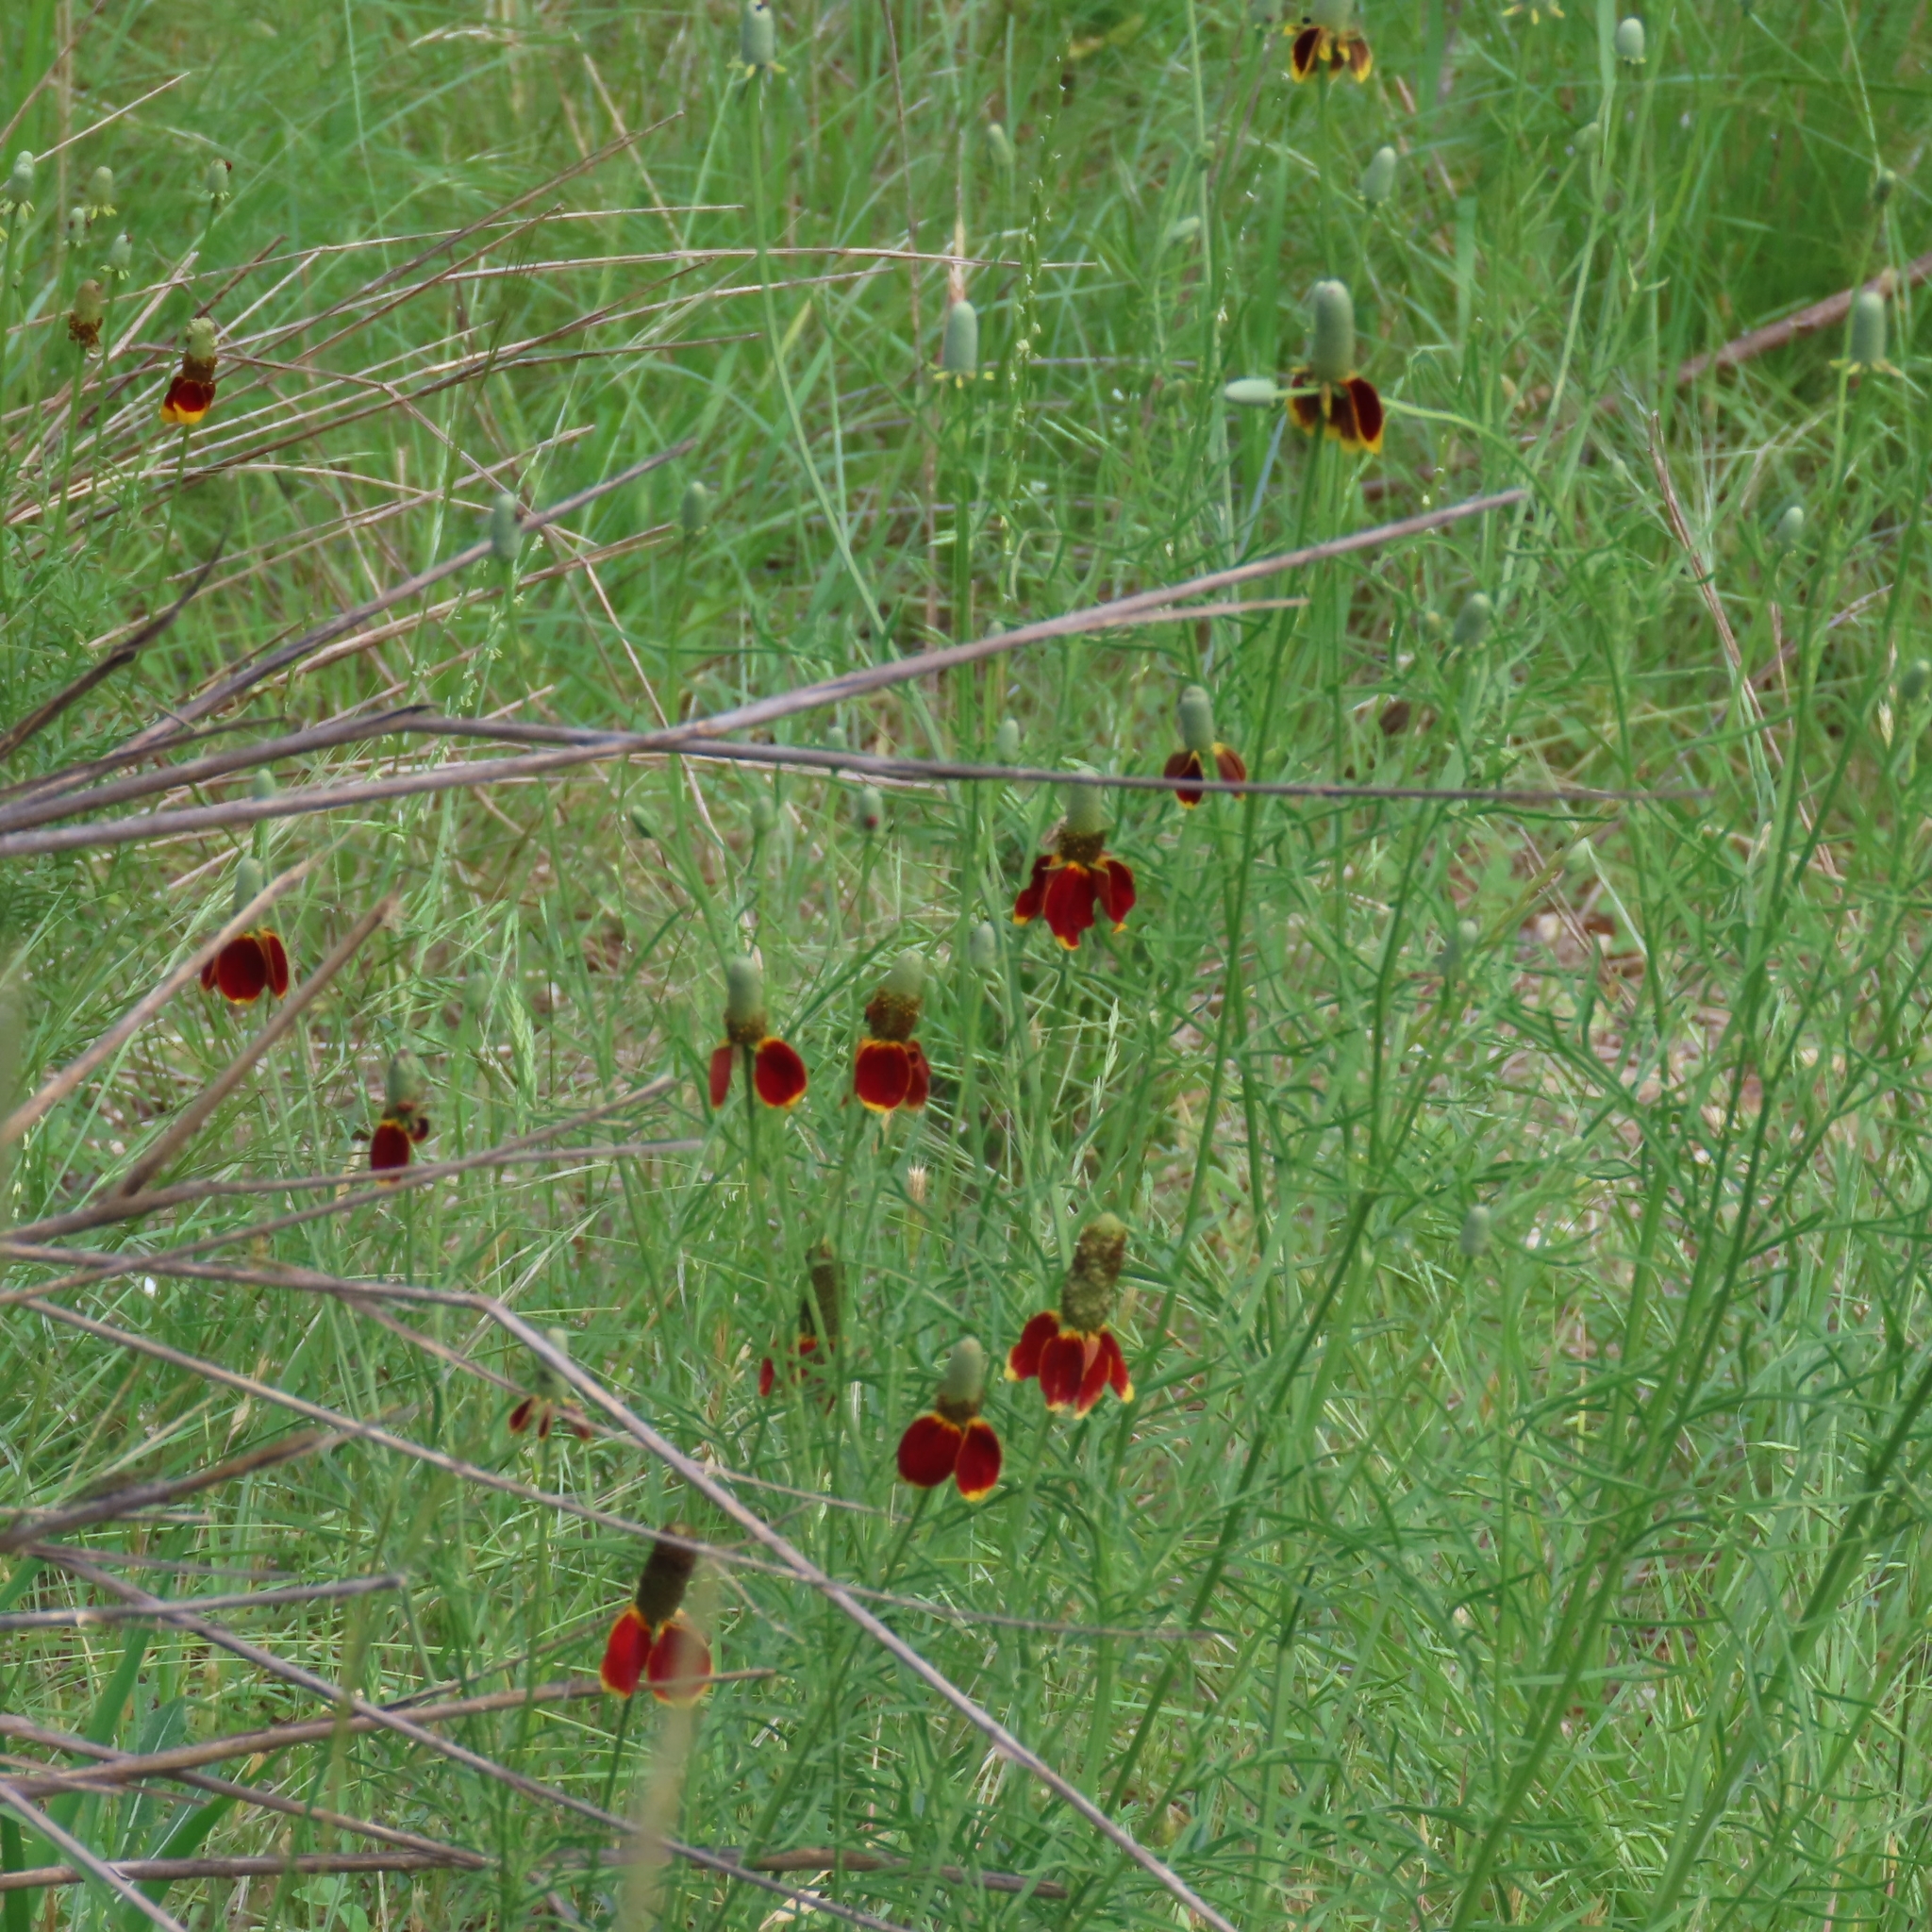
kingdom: Plantae
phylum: Tracheophyta
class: Magnoliopsida
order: Asterales
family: Asteraceae
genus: Ratibida
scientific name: Ratibida columnifera
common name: Prairie coneflower
